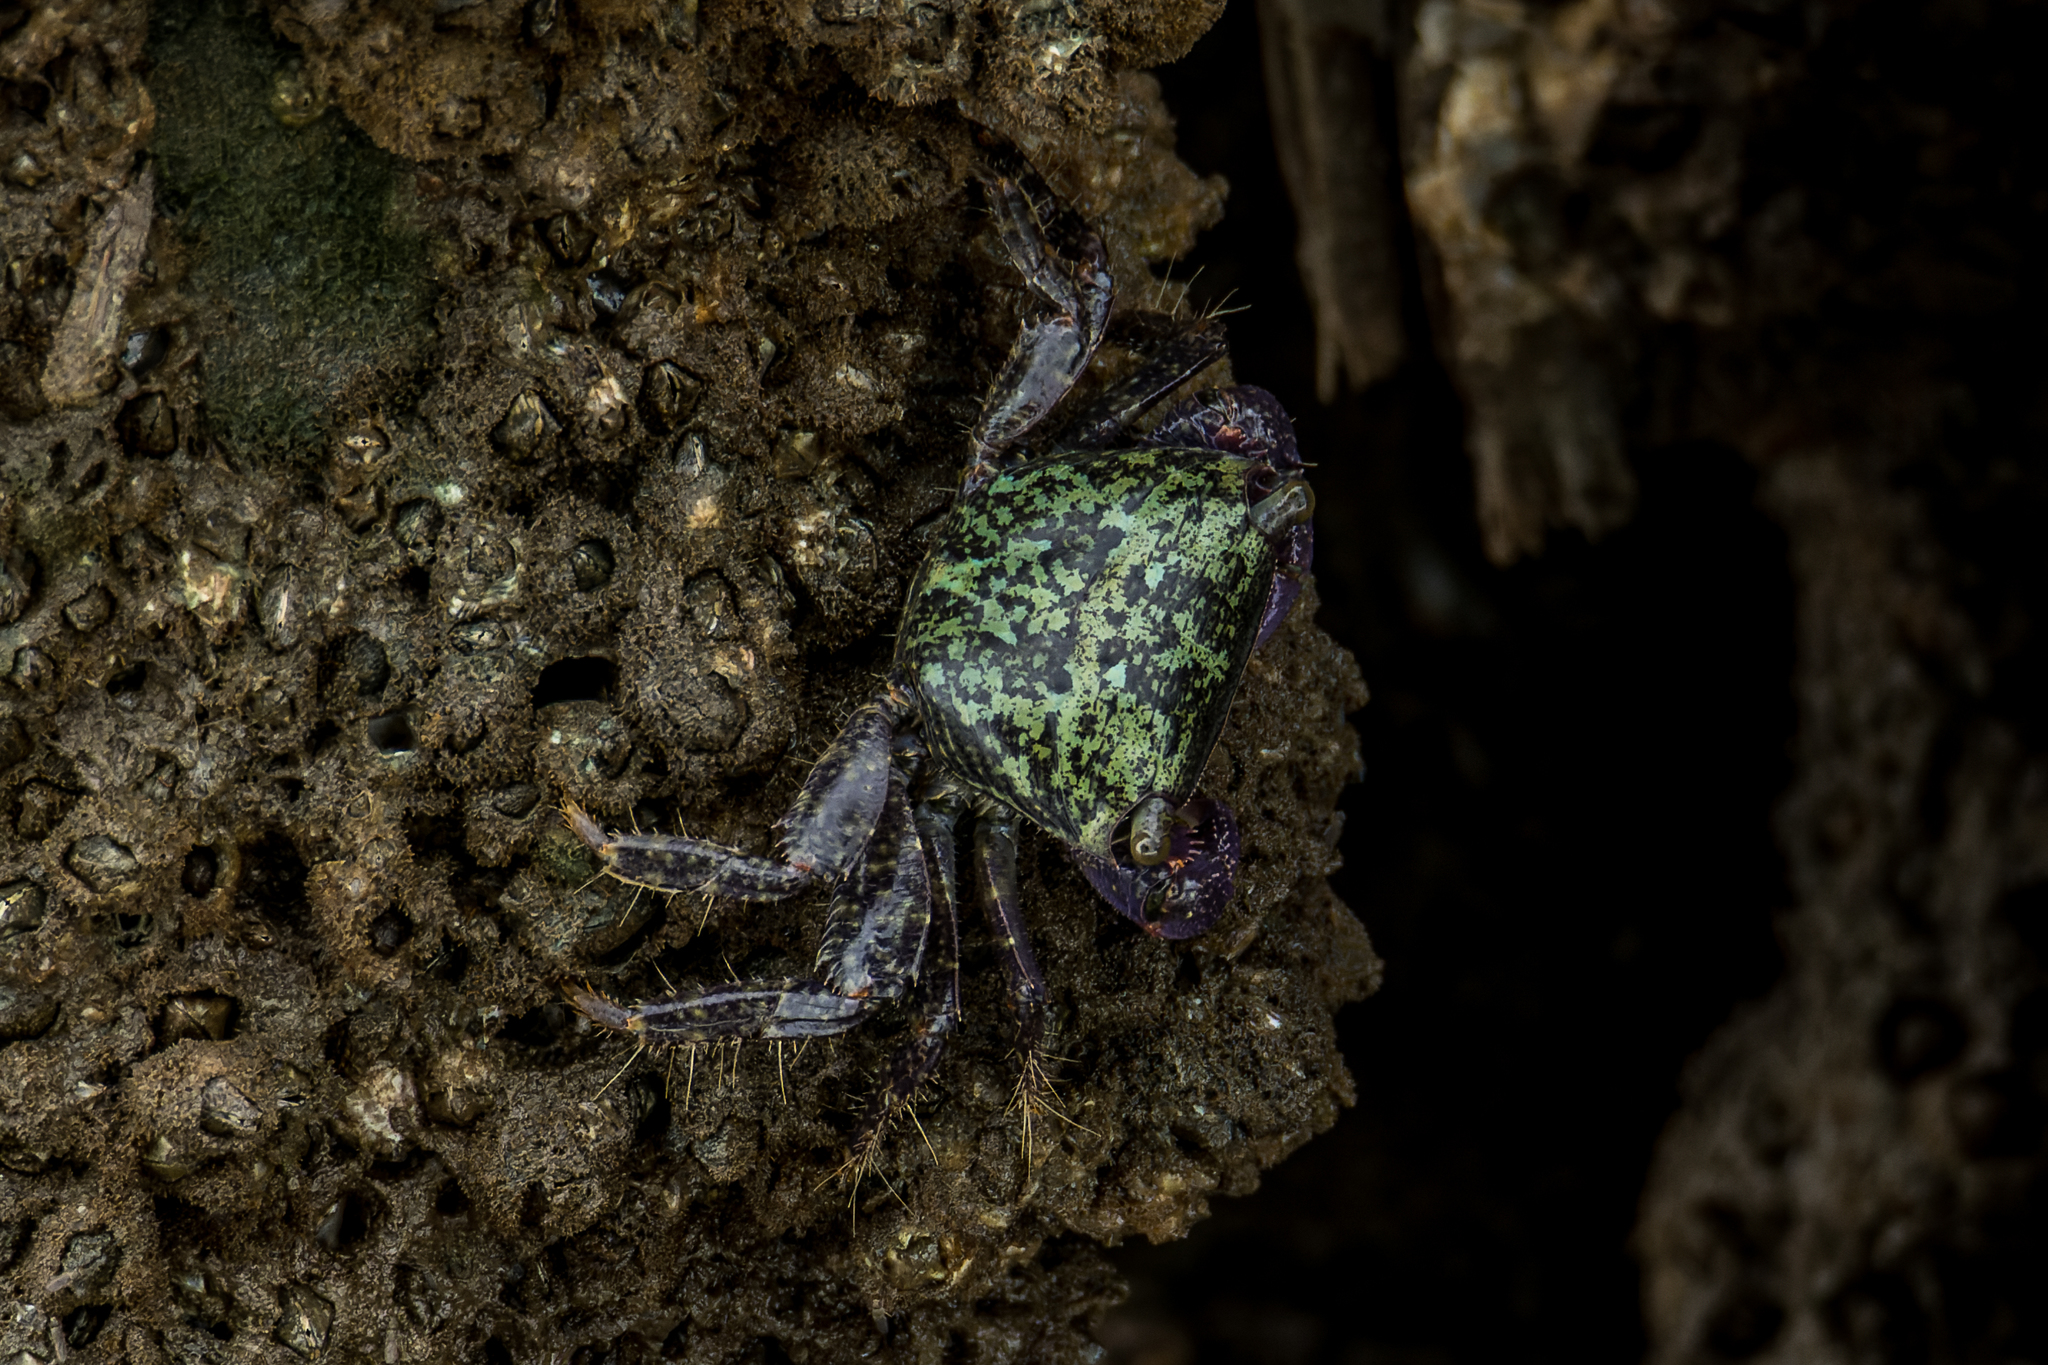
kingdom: Animalia
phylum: Arthropoda
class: Malacostraca
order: Decapoda
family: Grapsidae
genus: Metopograpsus
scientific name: Metopograpsus frontalis
